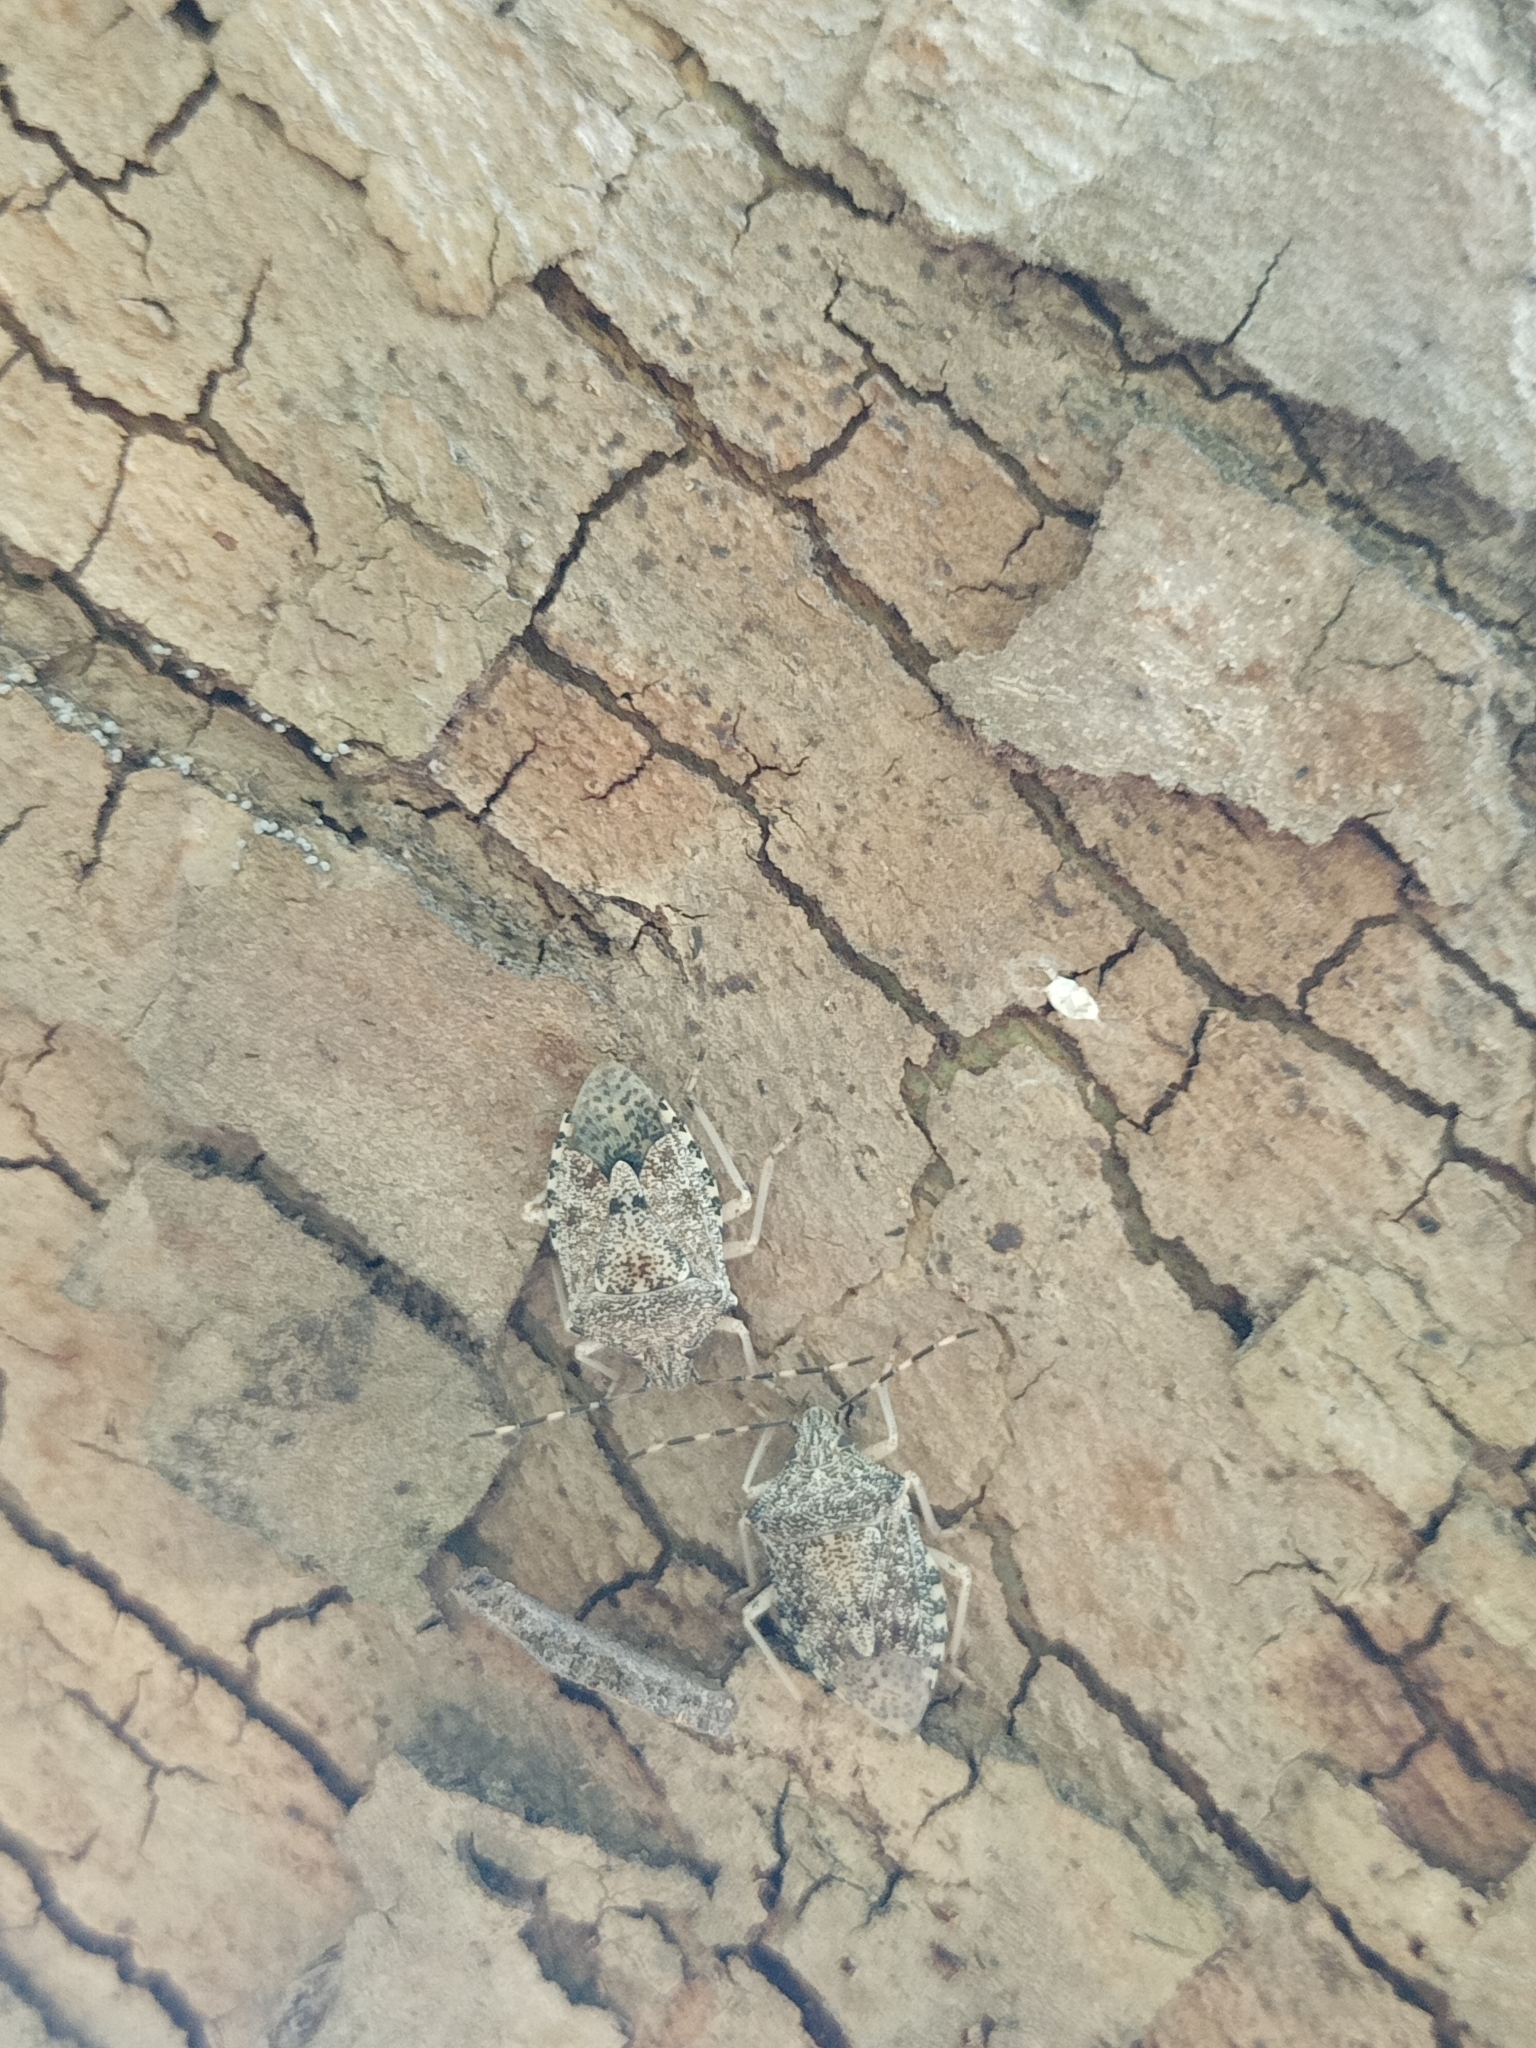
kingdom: Animalia
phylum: Arthropoda
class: Insecta
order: Hemiptera
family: Pentatomidae
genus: Rhaphigaster
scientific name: Rhaphigaster nebulosa
